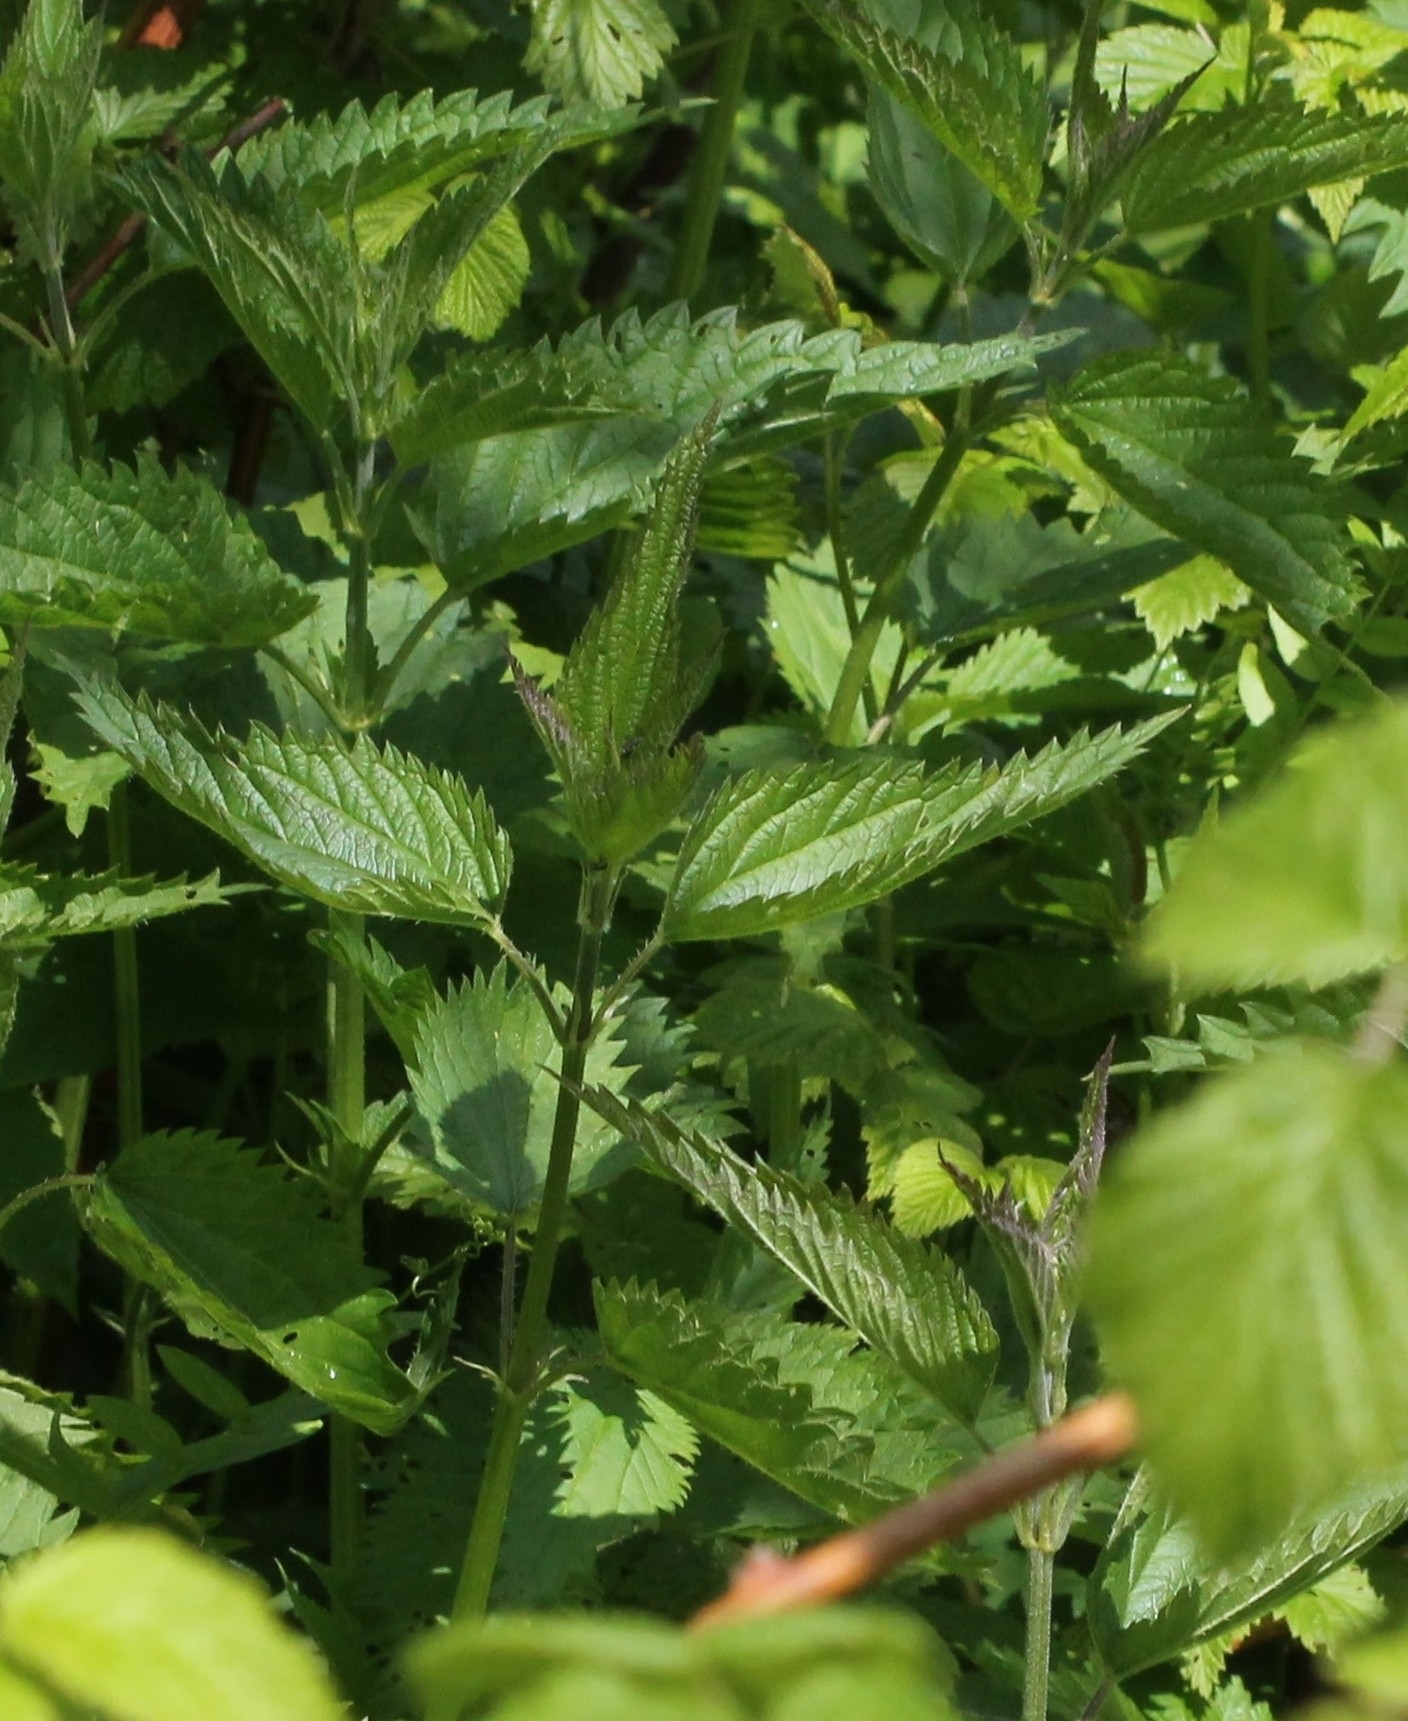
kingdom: Plantae
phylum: Tracheophyta
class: Magnoliopsida
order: Rosales
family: Urticaceae
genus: Urtica
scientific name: Urtica dioica
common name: Common nettle
